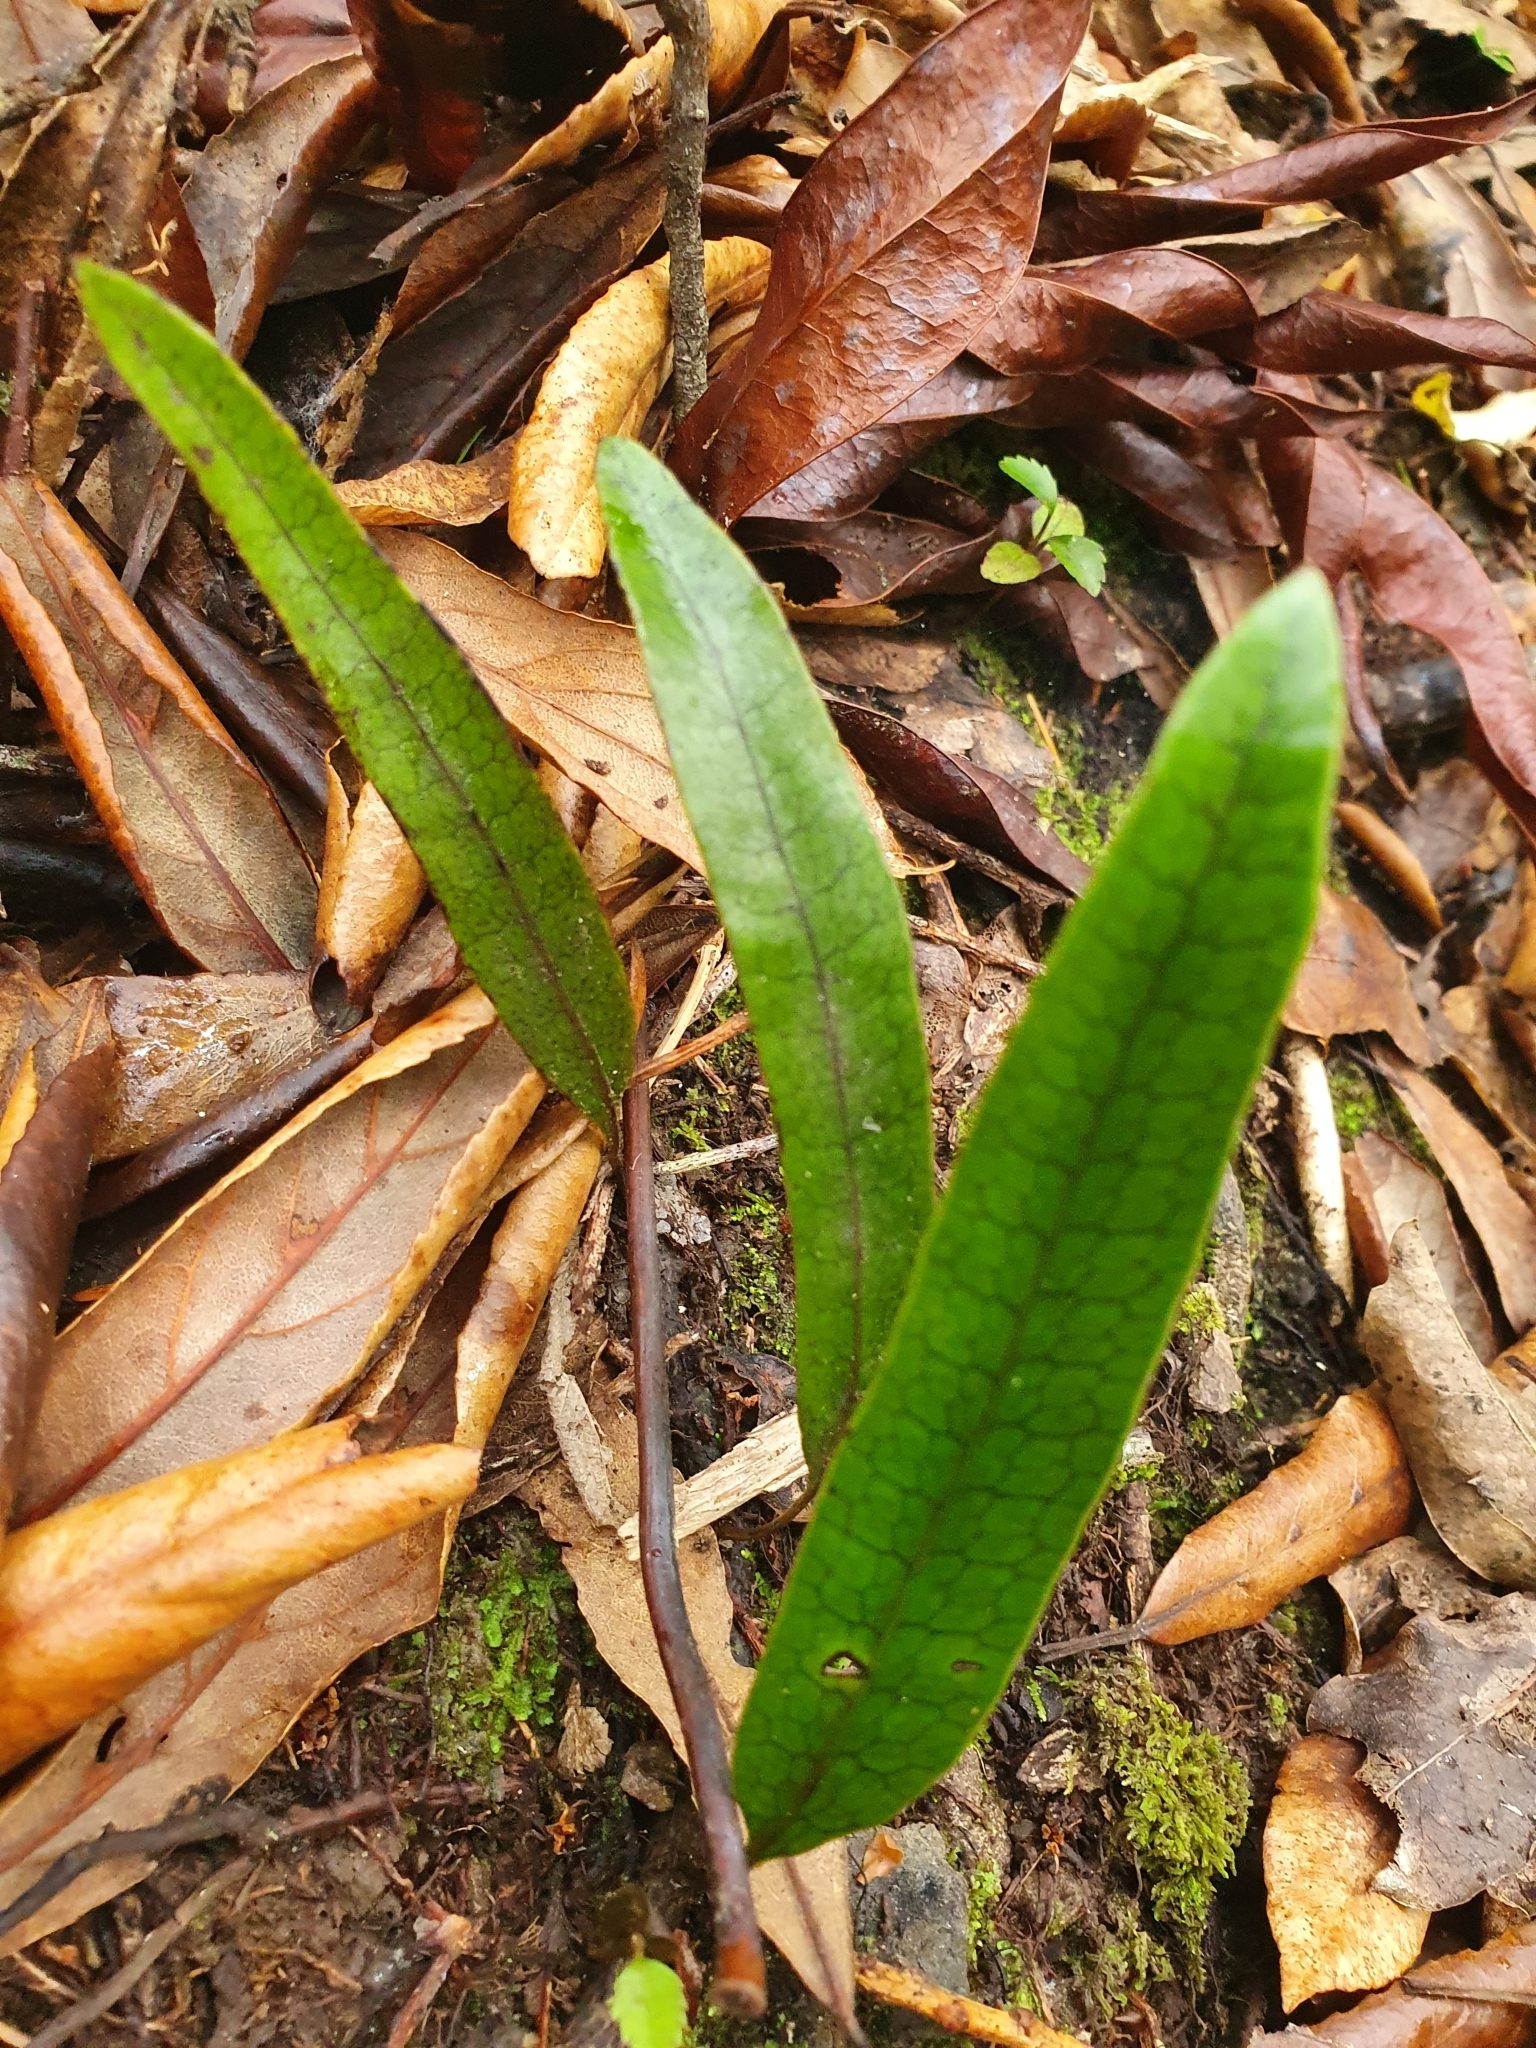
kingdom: Plantae
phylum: Tracheophyta
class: Polypodiopsida
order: Polypodiales
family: Polypodiaceae
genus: Lecanopteris
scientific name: Lecanopteris pustulata
